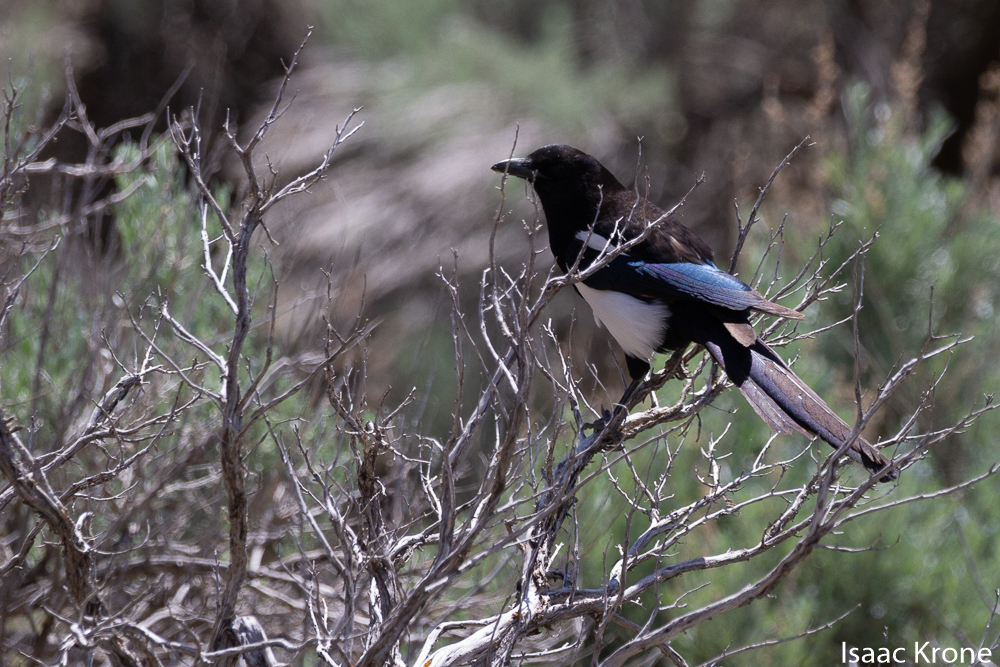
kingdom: Animalia
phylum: Chordata
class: Aves
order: Passeriformes
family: Corvidae
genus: Pica
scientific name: Pica hudsonia
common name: Black-billed magpie
